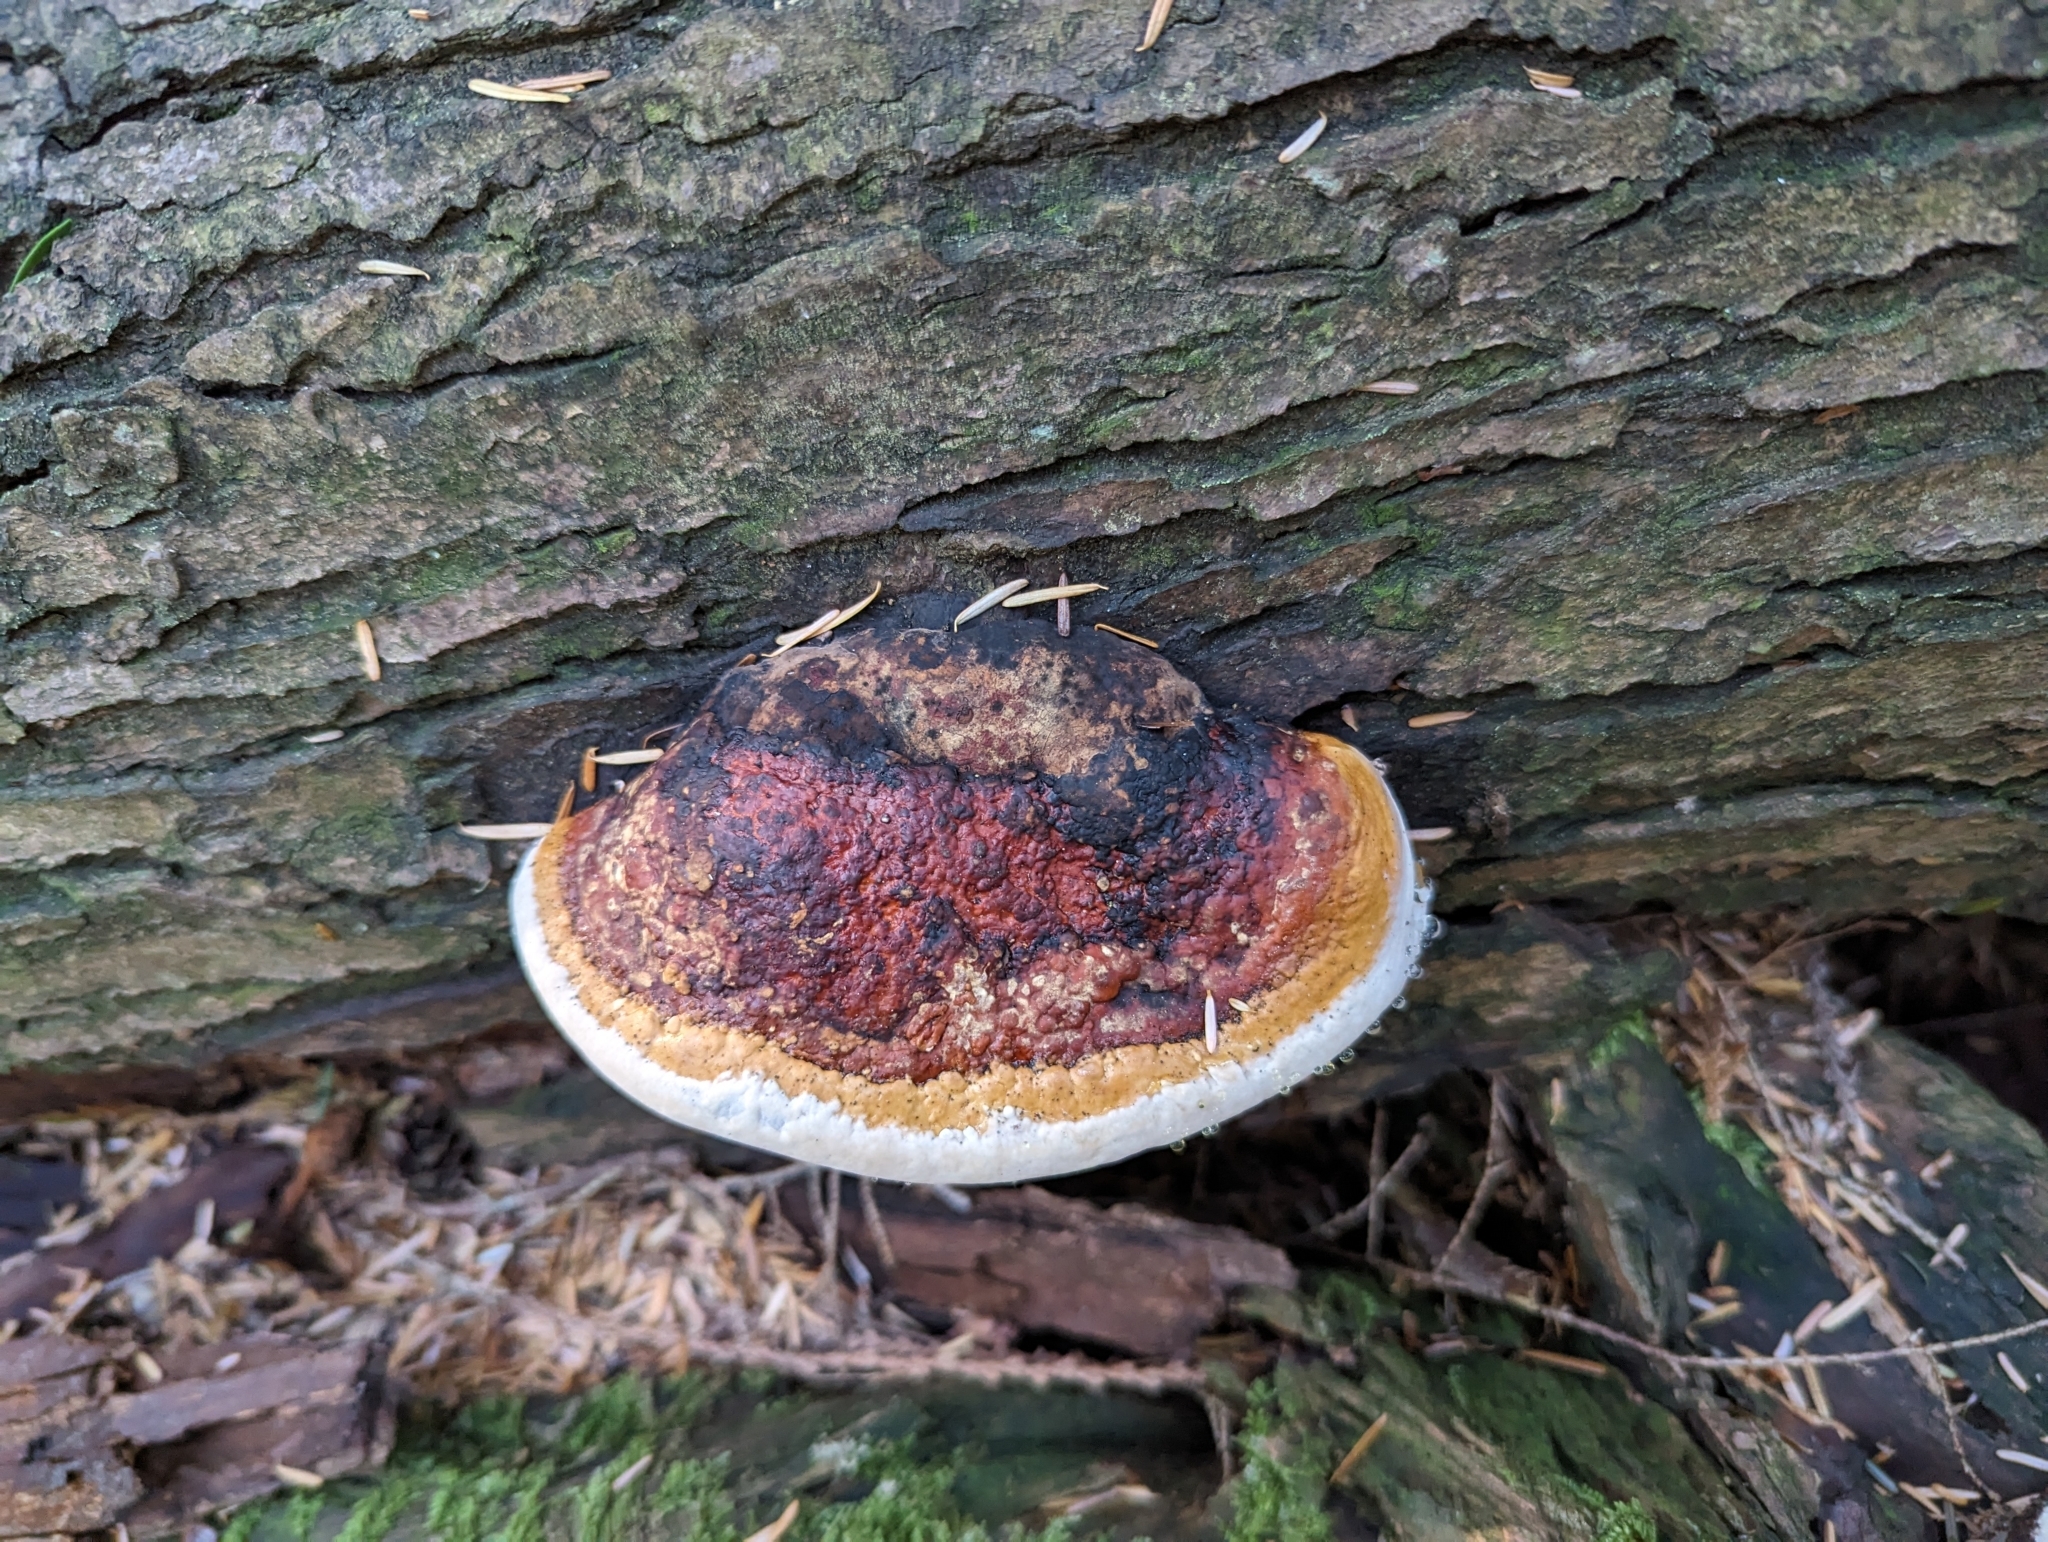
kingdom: Fungi
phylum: Basidiomycota
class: Agaricomycetes
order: Polyporales
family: Fomitopsidaceae
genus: Fomitopsis
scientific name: Fomitopsis mounceae
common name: Northern red belt
